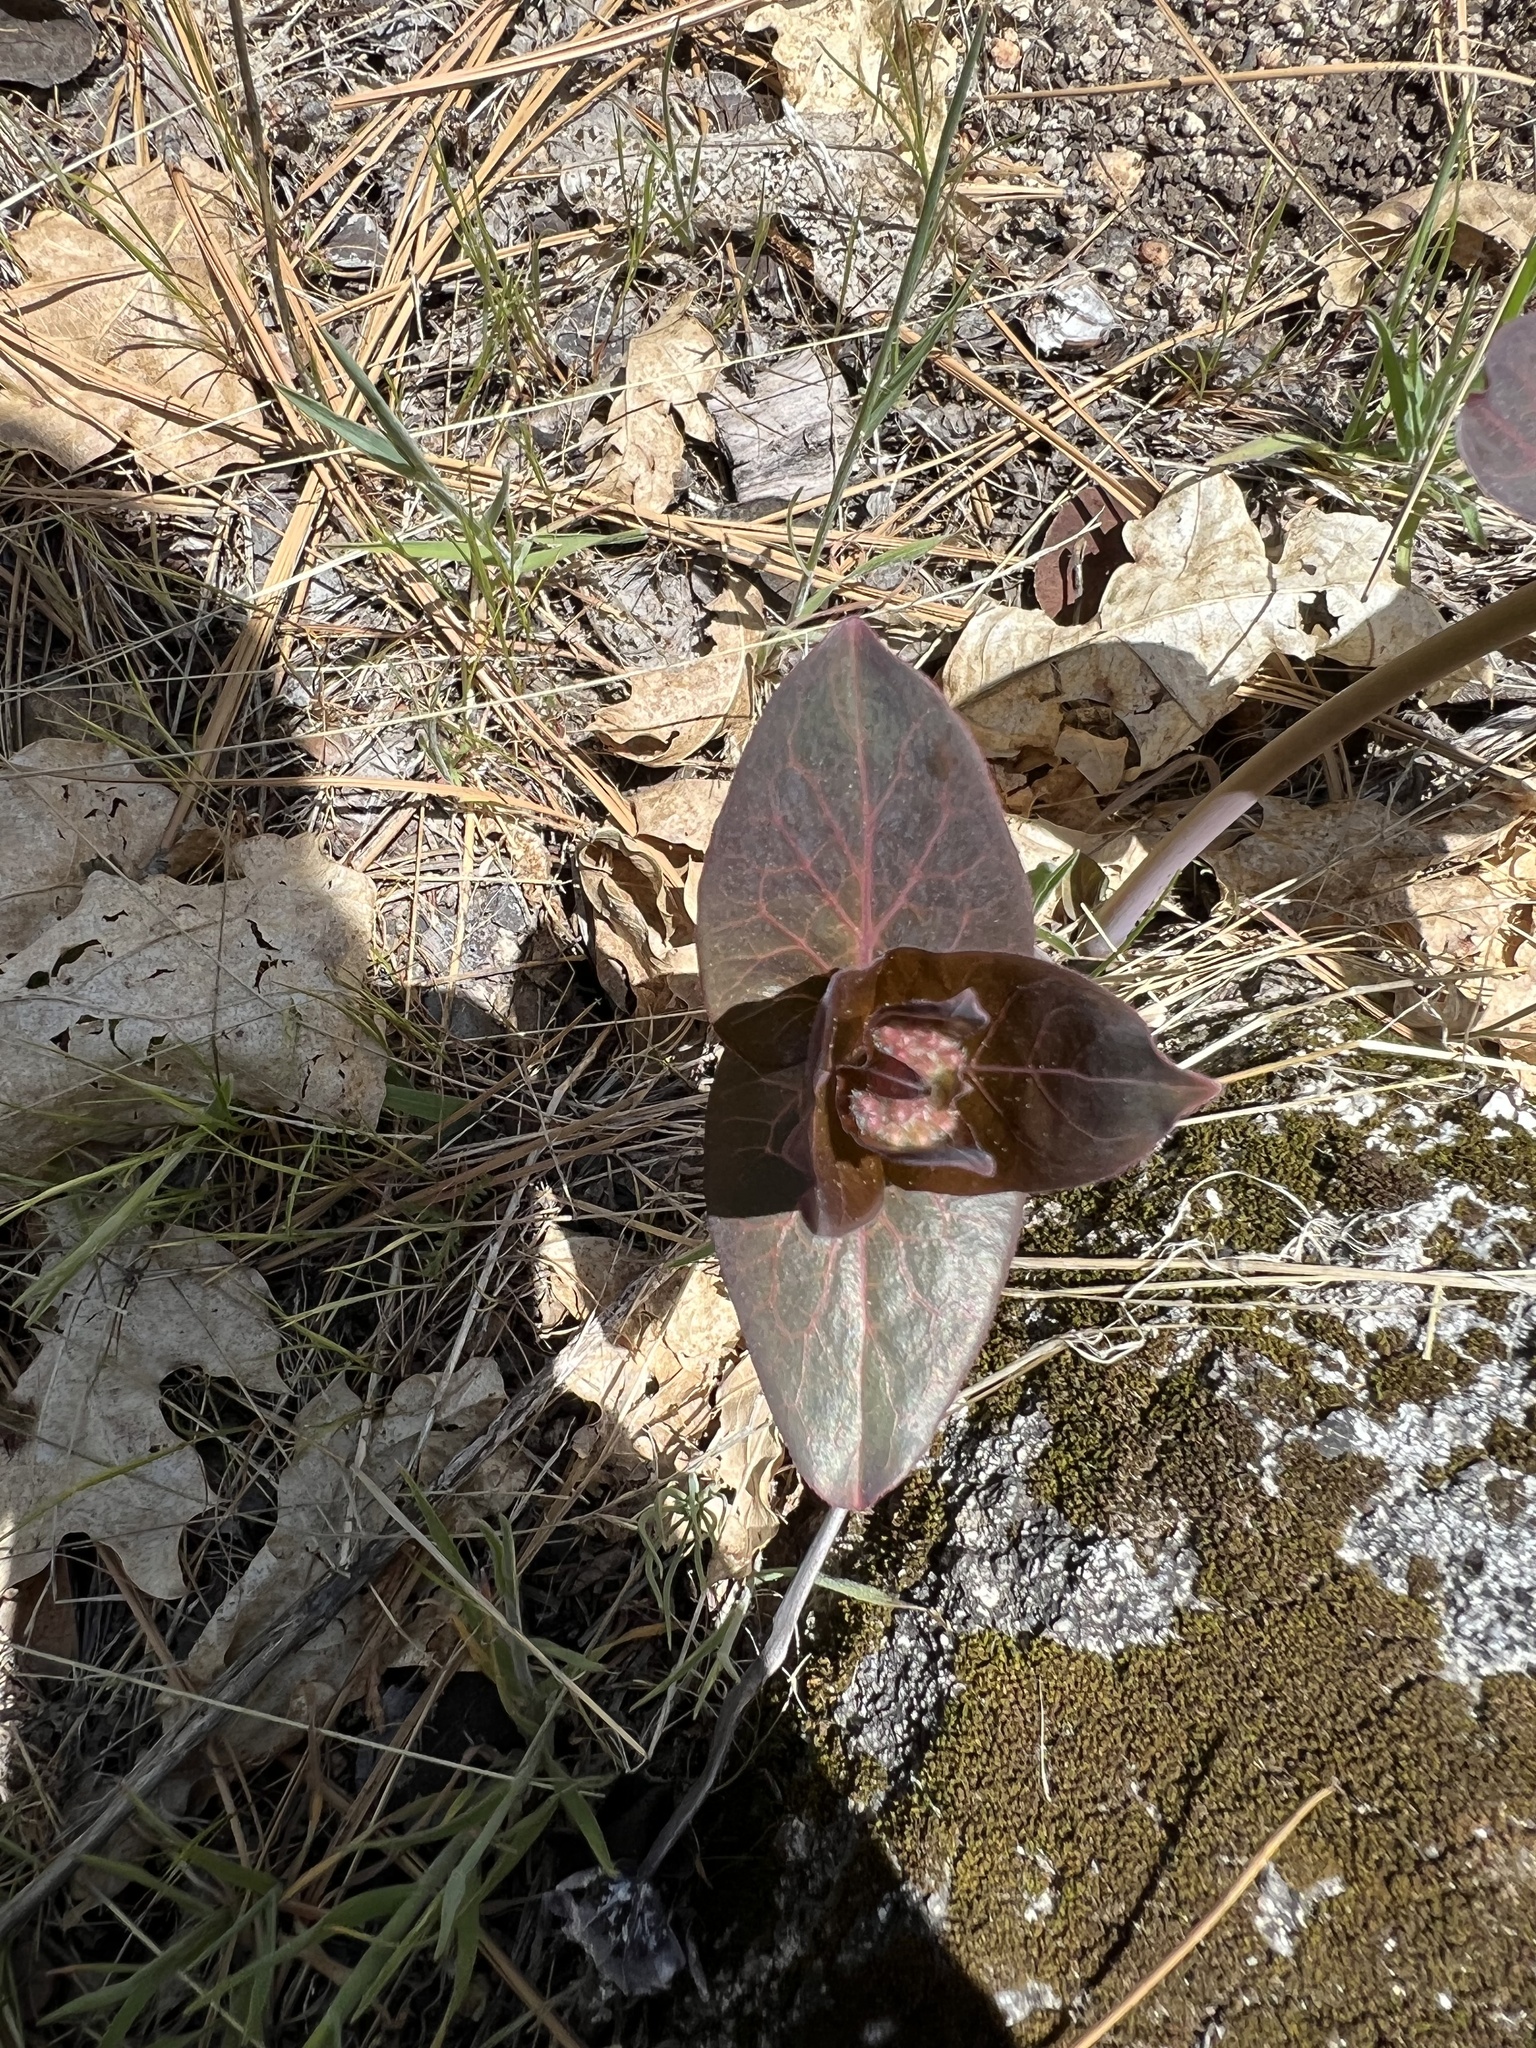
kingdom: Plantae
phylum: Tracheophyta
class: Magnoliopsida
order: Gentianales
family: Apocynaceae
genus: Asclepias
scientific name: Asclepias cordifolia
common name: Purple milkweed
